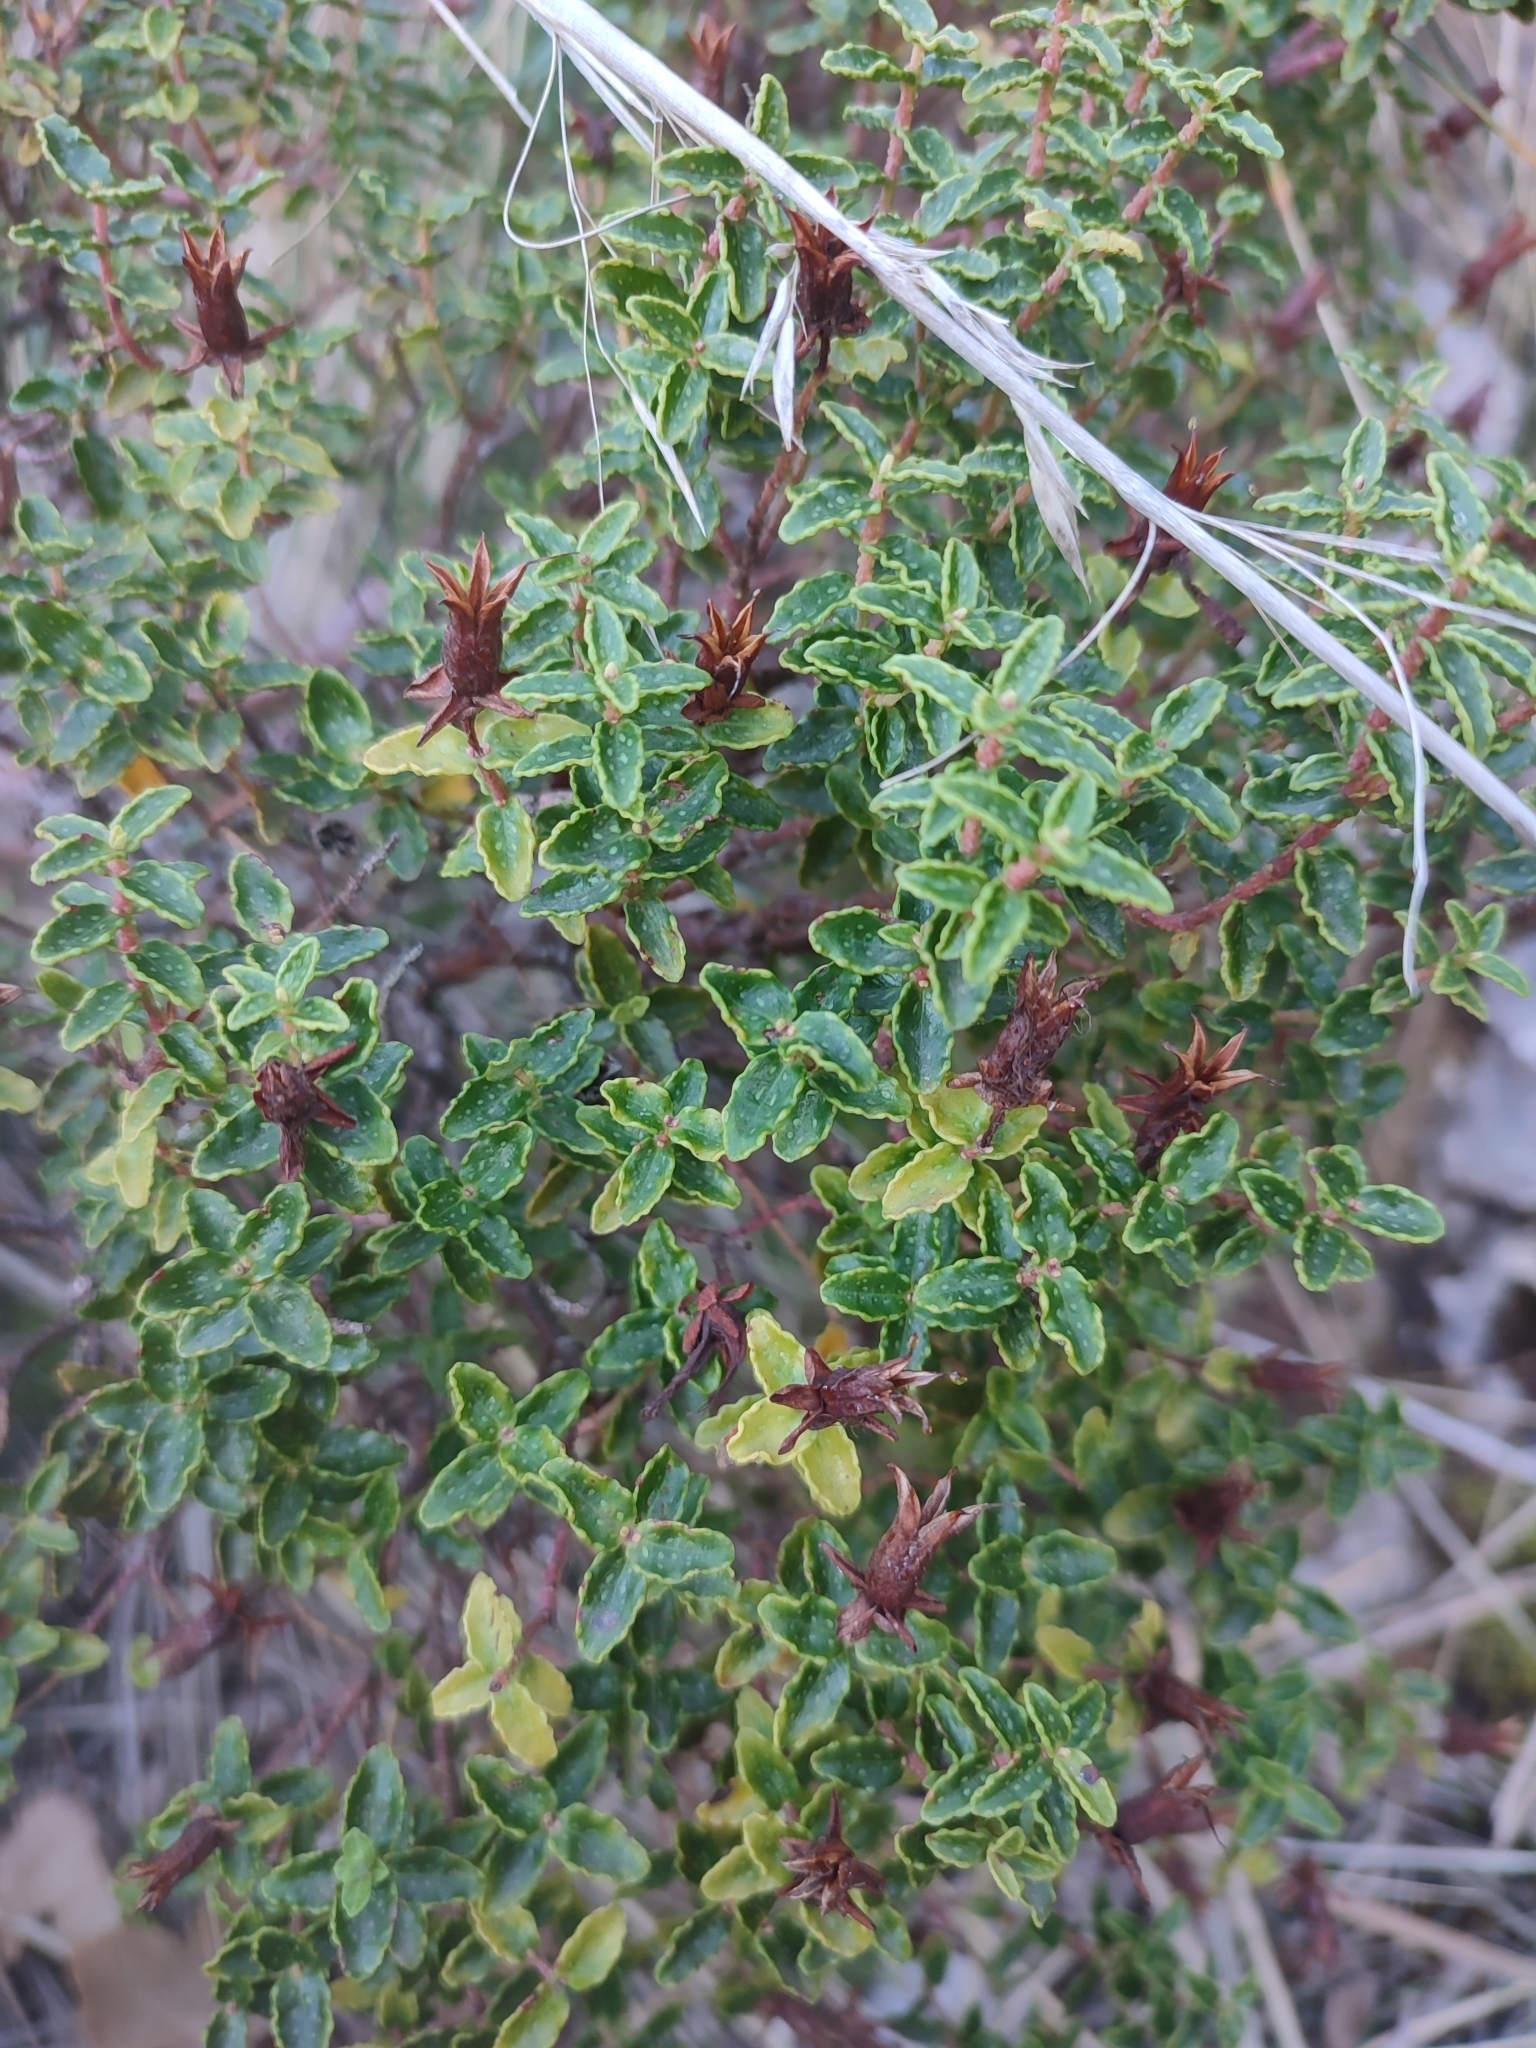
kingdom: Plantae
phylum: Tracheophyta
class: Magnoliopsida
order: Malpighiales
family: Hypericaceae
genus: Hypericum
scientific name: Hypericum balearicum
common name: Majorca st john's wort
